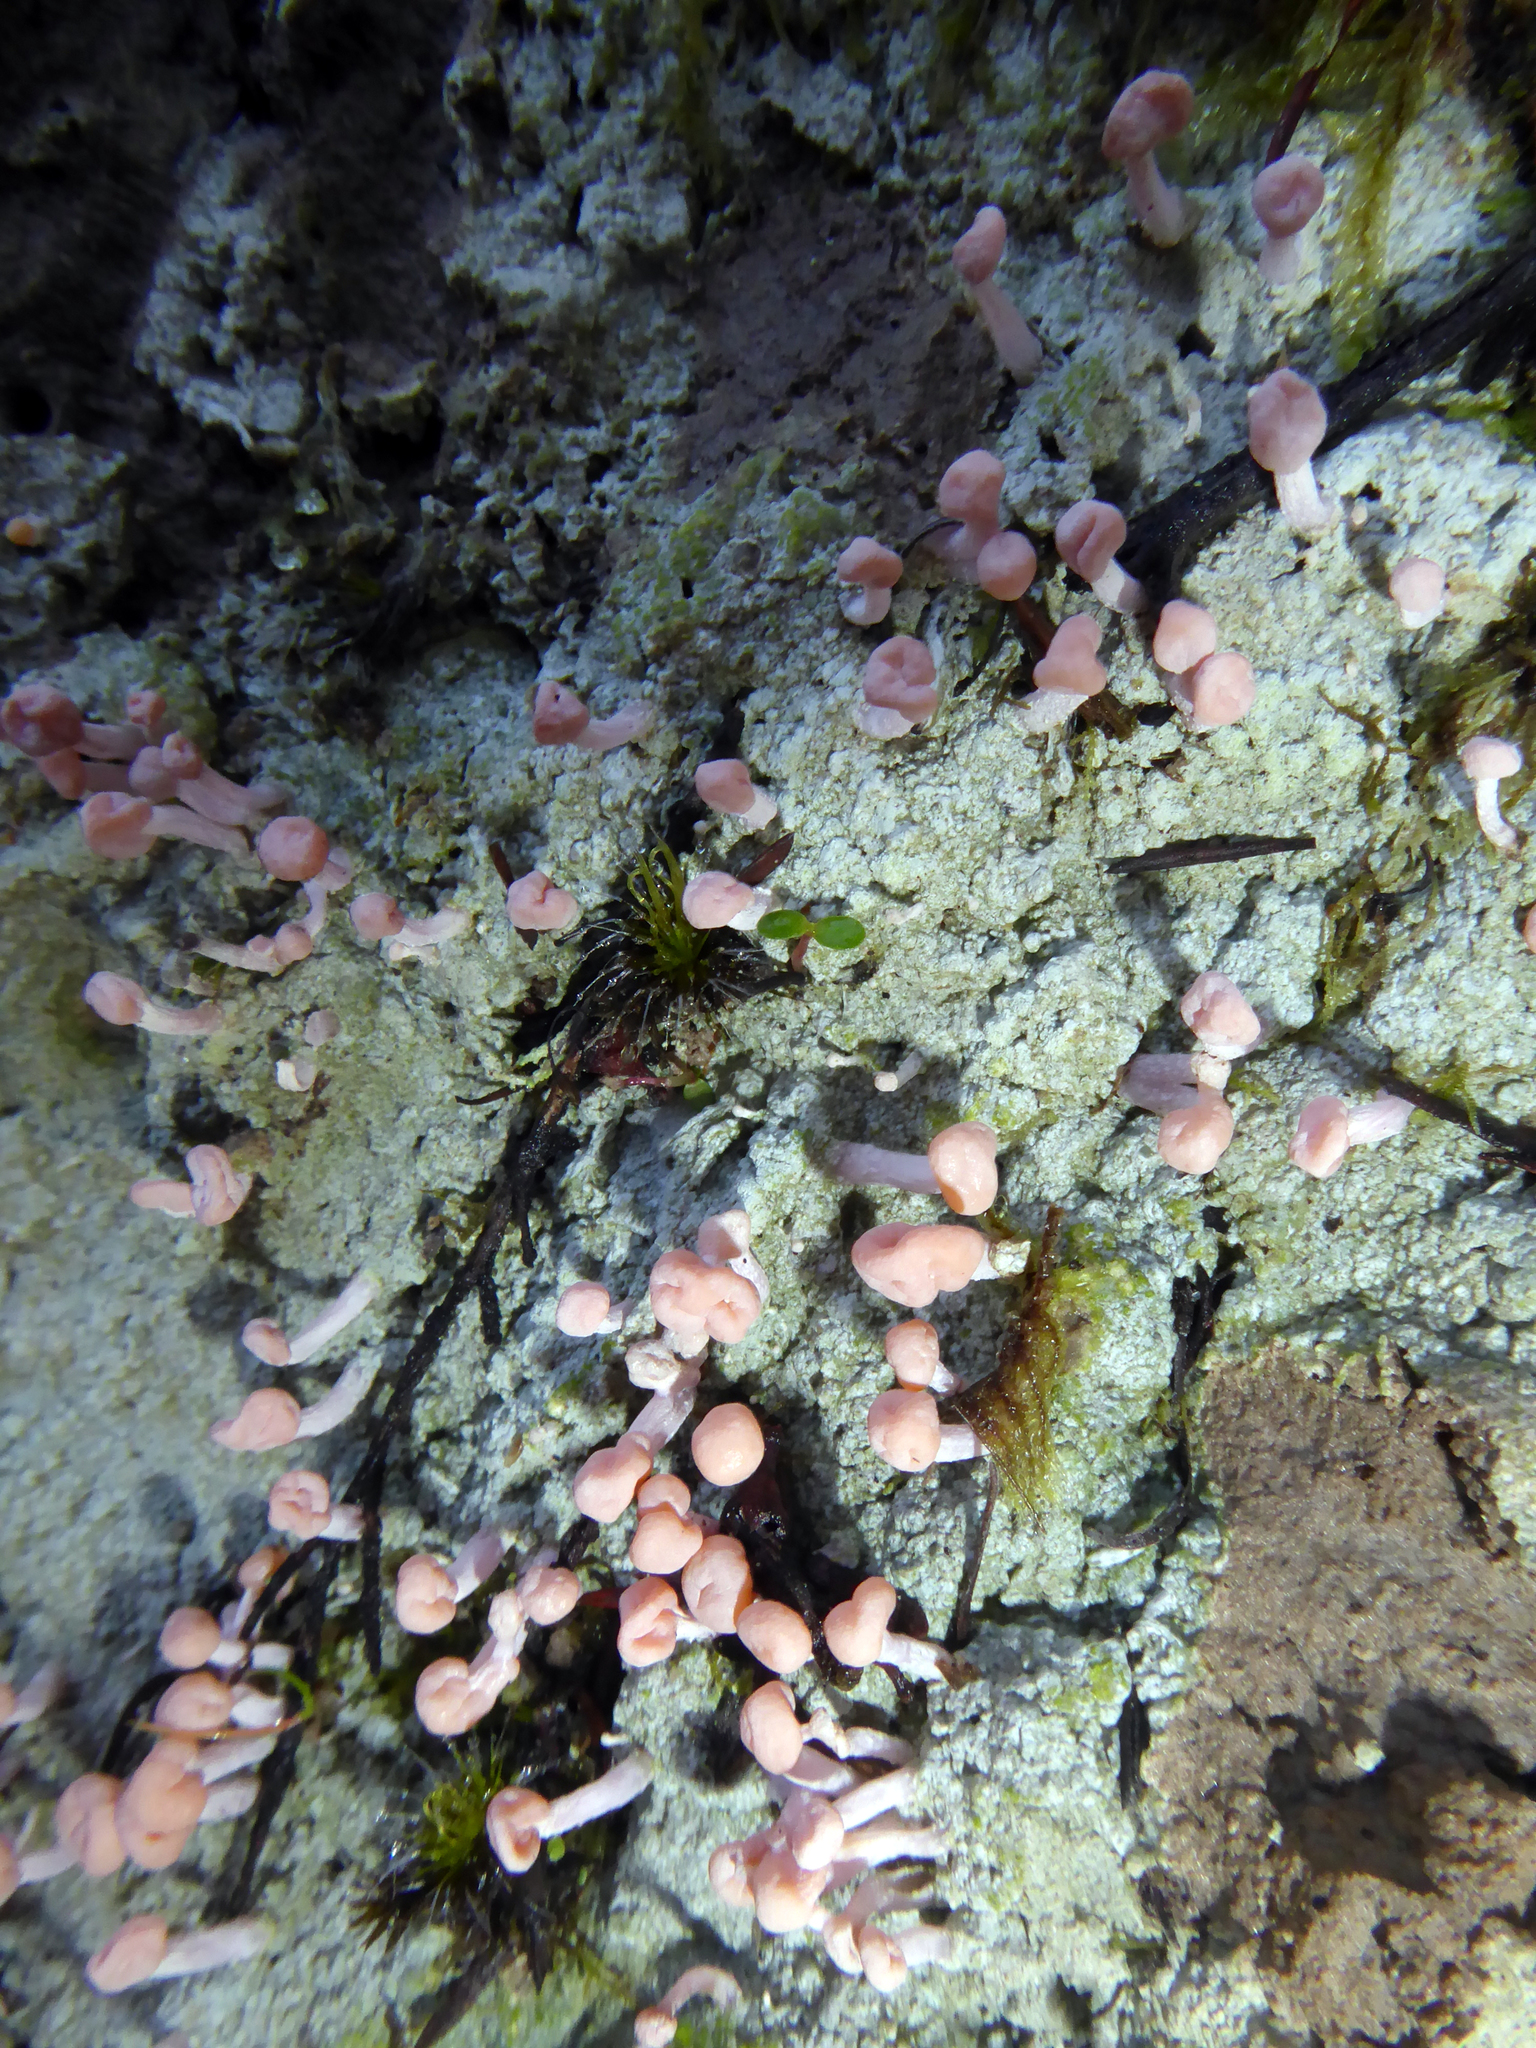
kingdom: Fungi
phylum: Ascomycota
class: Lecanoromycetes
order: Pertusariales
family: Icmadophilaceae
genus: Dibaeis
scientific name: Dibaeis arcuata
